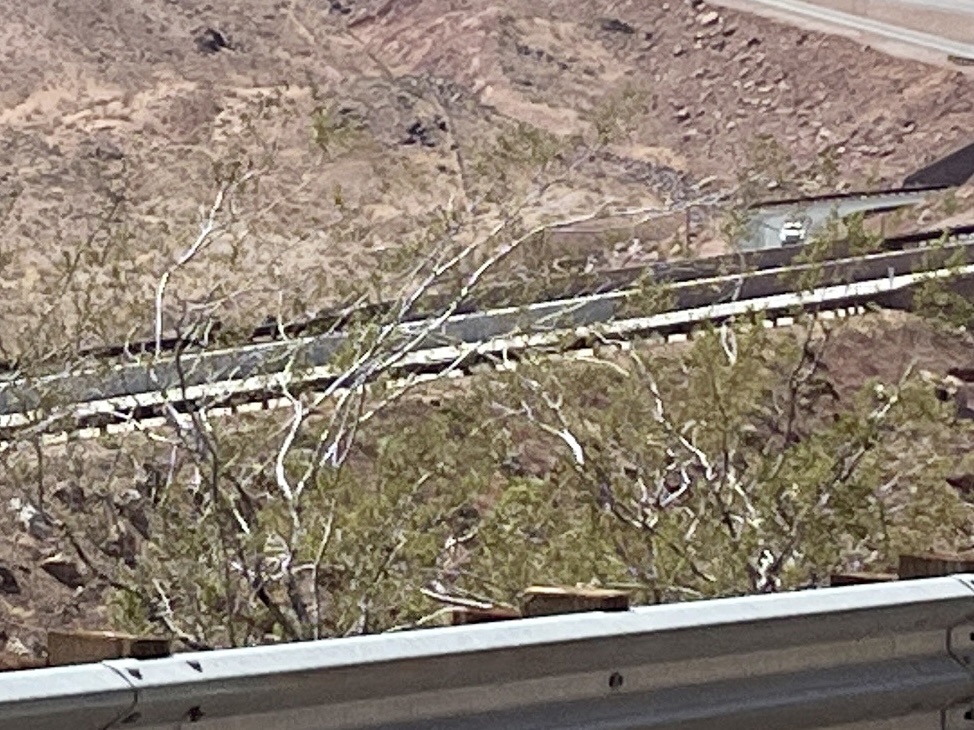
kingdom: Plantae
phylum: Tracheophyta
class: Magnoliopsida
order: Zygophyllales
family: Zygophyllaceae
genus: Larrea
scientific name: Larrea tridentata
